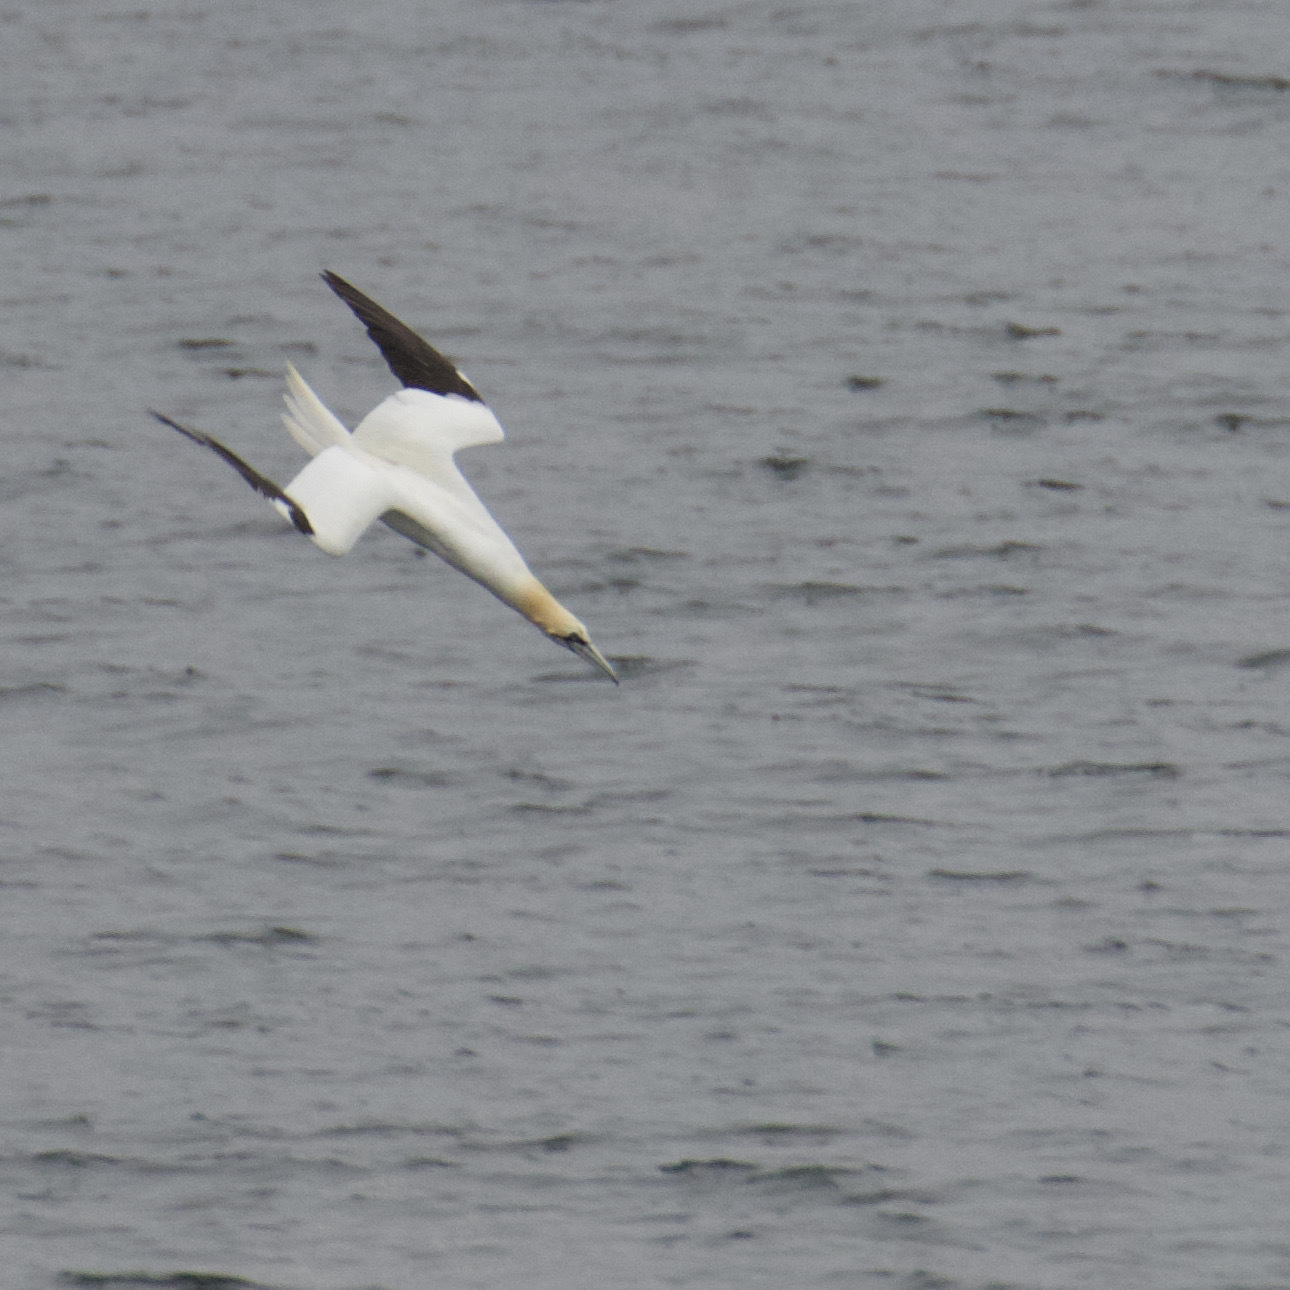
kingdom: Animalia
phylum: Chordata
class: Aves
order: Suliformes
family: Sulidae
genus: Morus
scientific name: Morus bassanus
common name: Northern gannet
